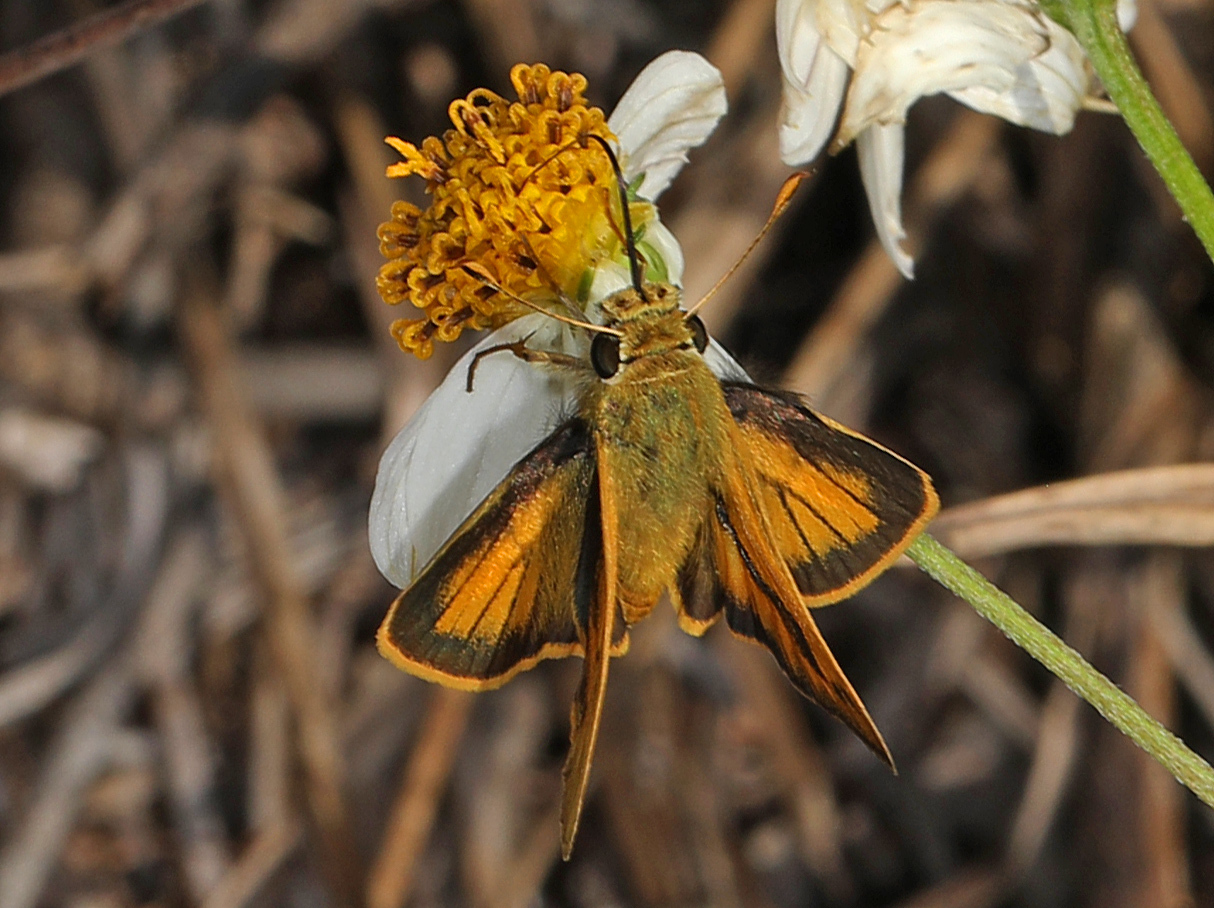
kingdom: Animalia
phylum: Arthropoda
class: Insecta
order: Lepidoptera
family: Hesperiidae
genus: Polites
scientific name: Polites vibex
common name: Whirlabout
